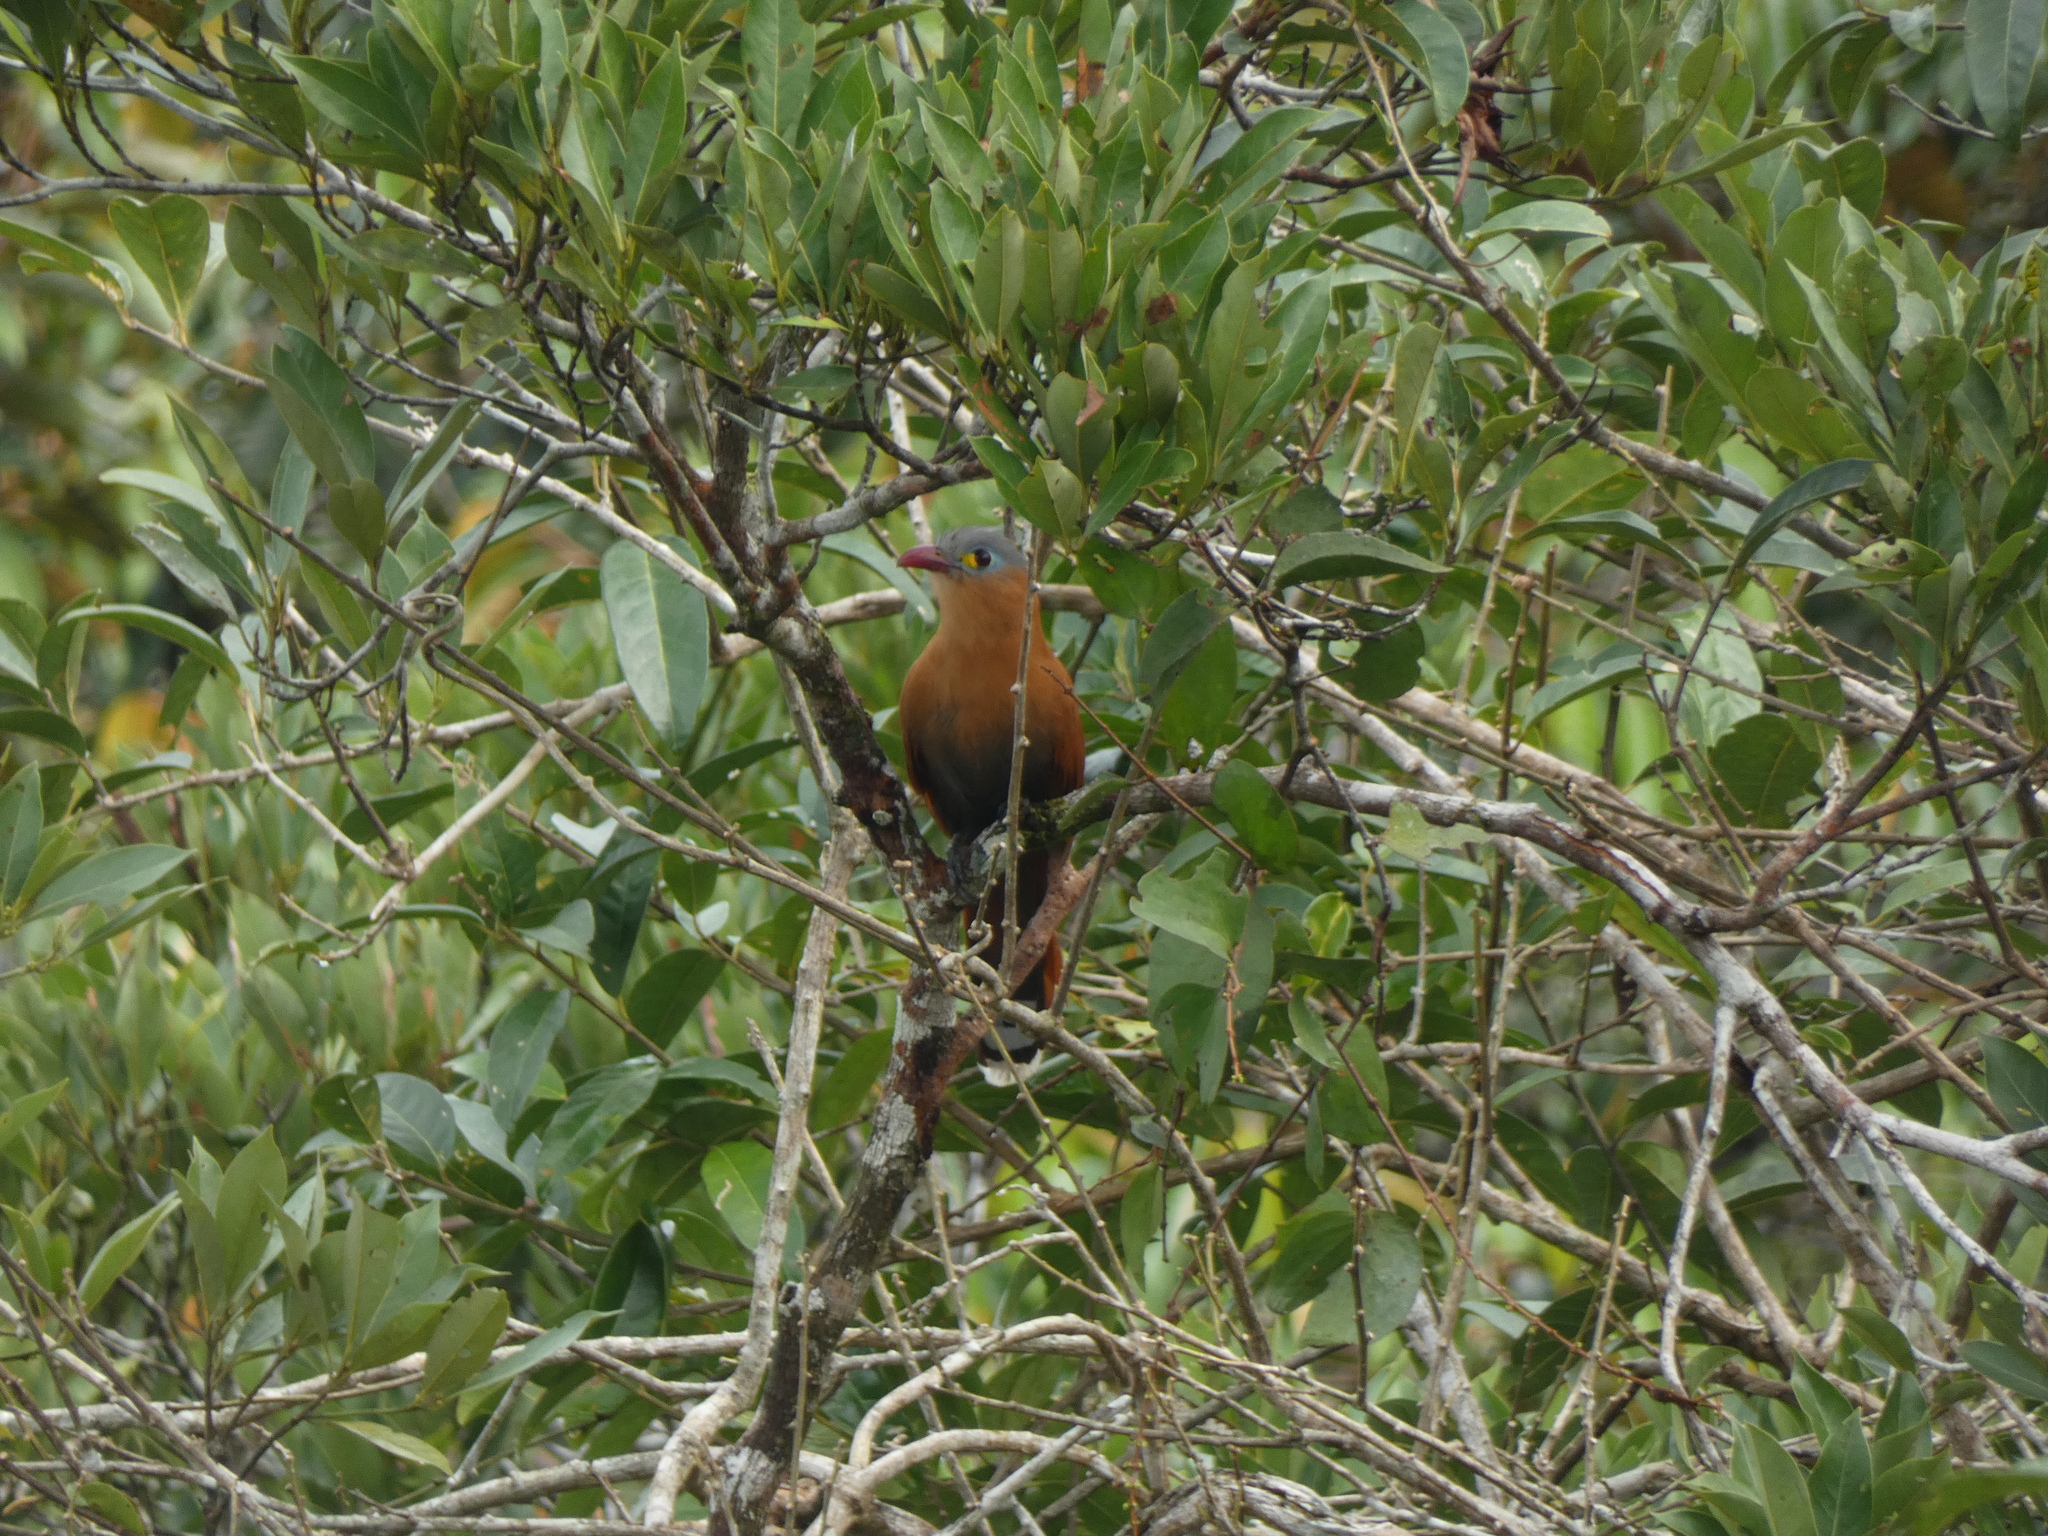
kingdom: Animalia
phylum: Chordata
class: Aves
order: Cuculiformes
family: Cuculidae
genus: Piaya
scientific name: Piaya melanogaster
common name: Black-bellied cuckoo
